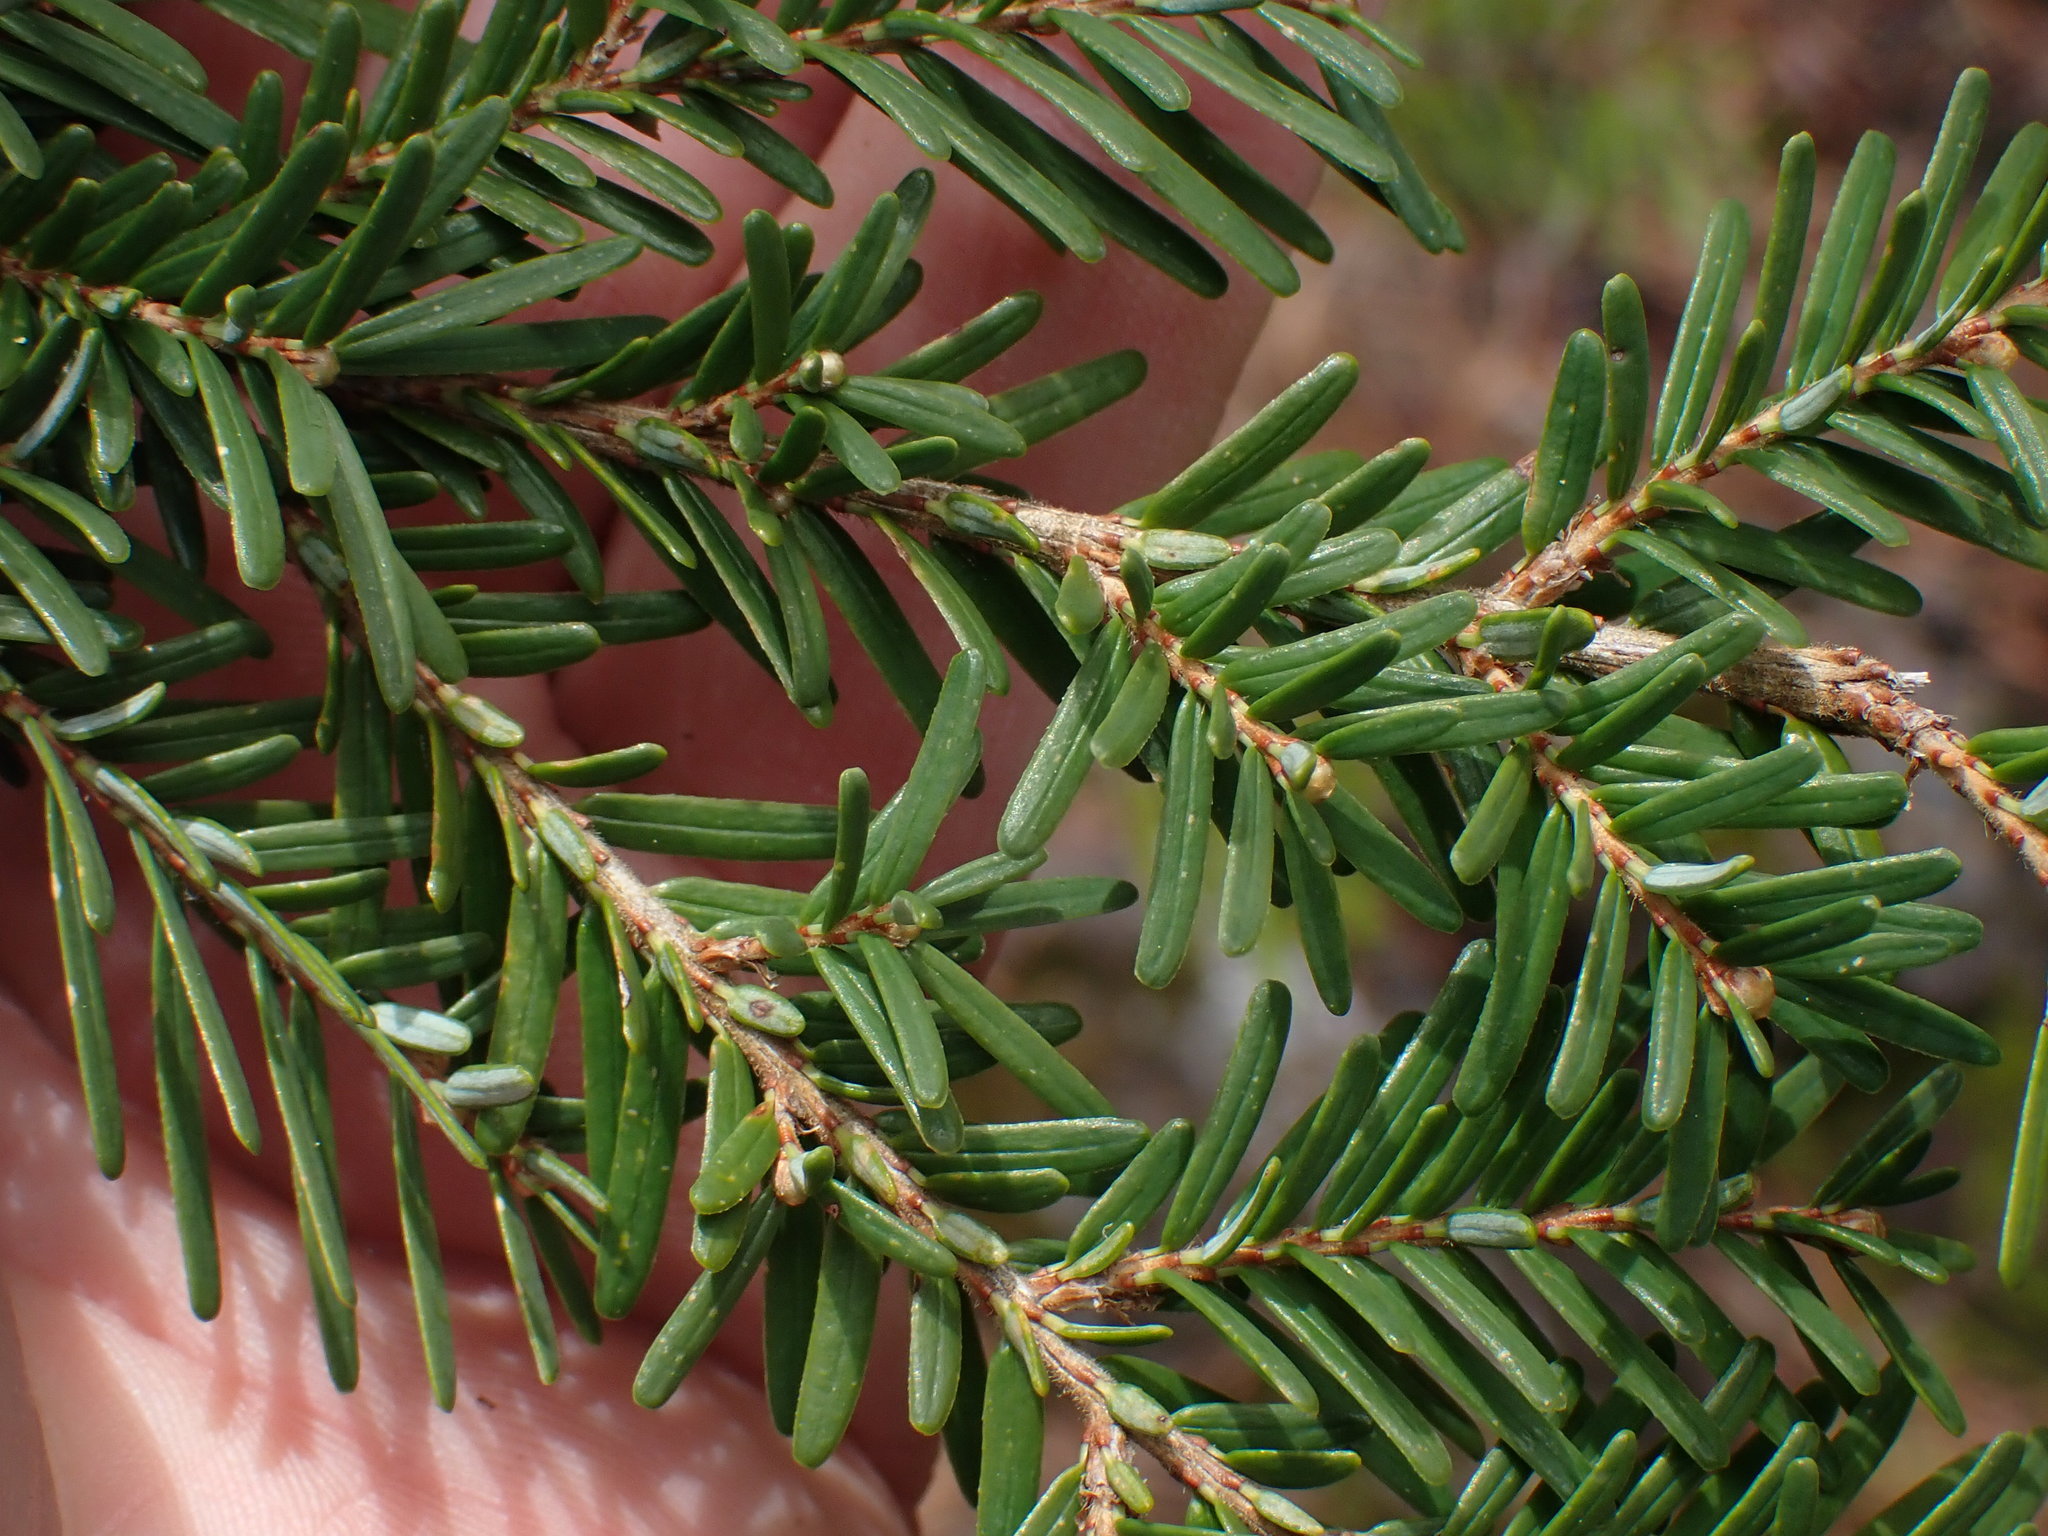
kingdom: Plantae
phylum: Tracheophyta
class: Pinopsida
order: Pinales
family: Pinaceae
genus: Tsuga
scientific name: Tsuga heterophylla
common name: Western hemlock
